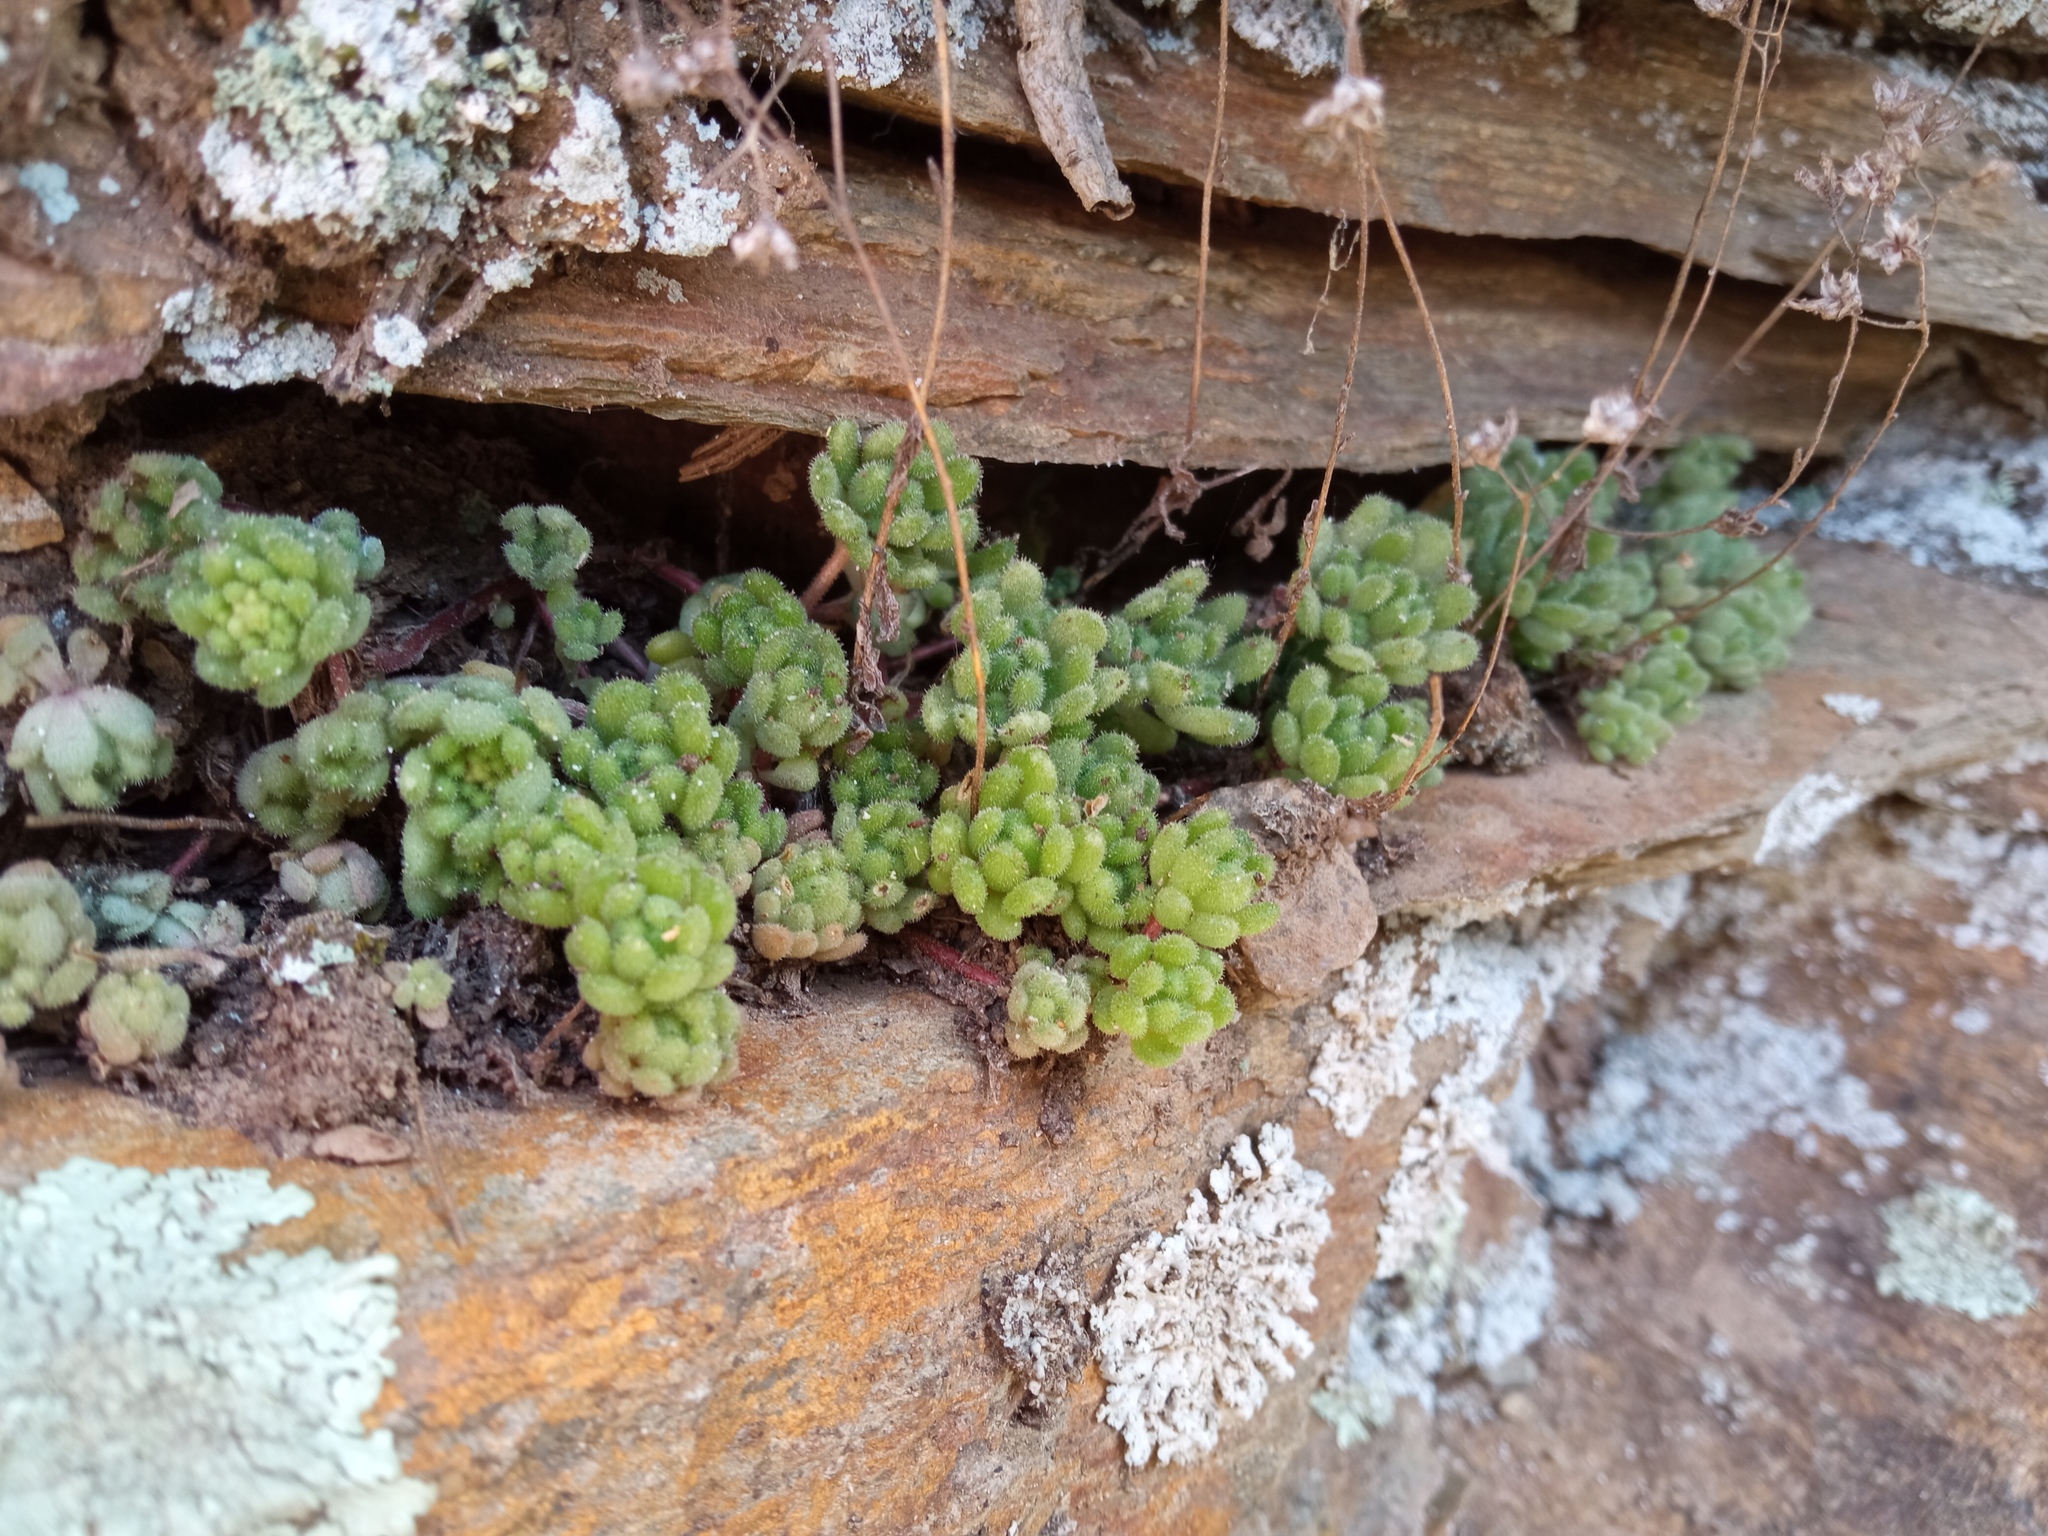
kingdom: Plantae
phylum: Tracheophyta
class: Magnoliopsida
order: Saxifragales
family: Crassulaceae
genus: Sedum
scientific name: Sedum hirsutum
